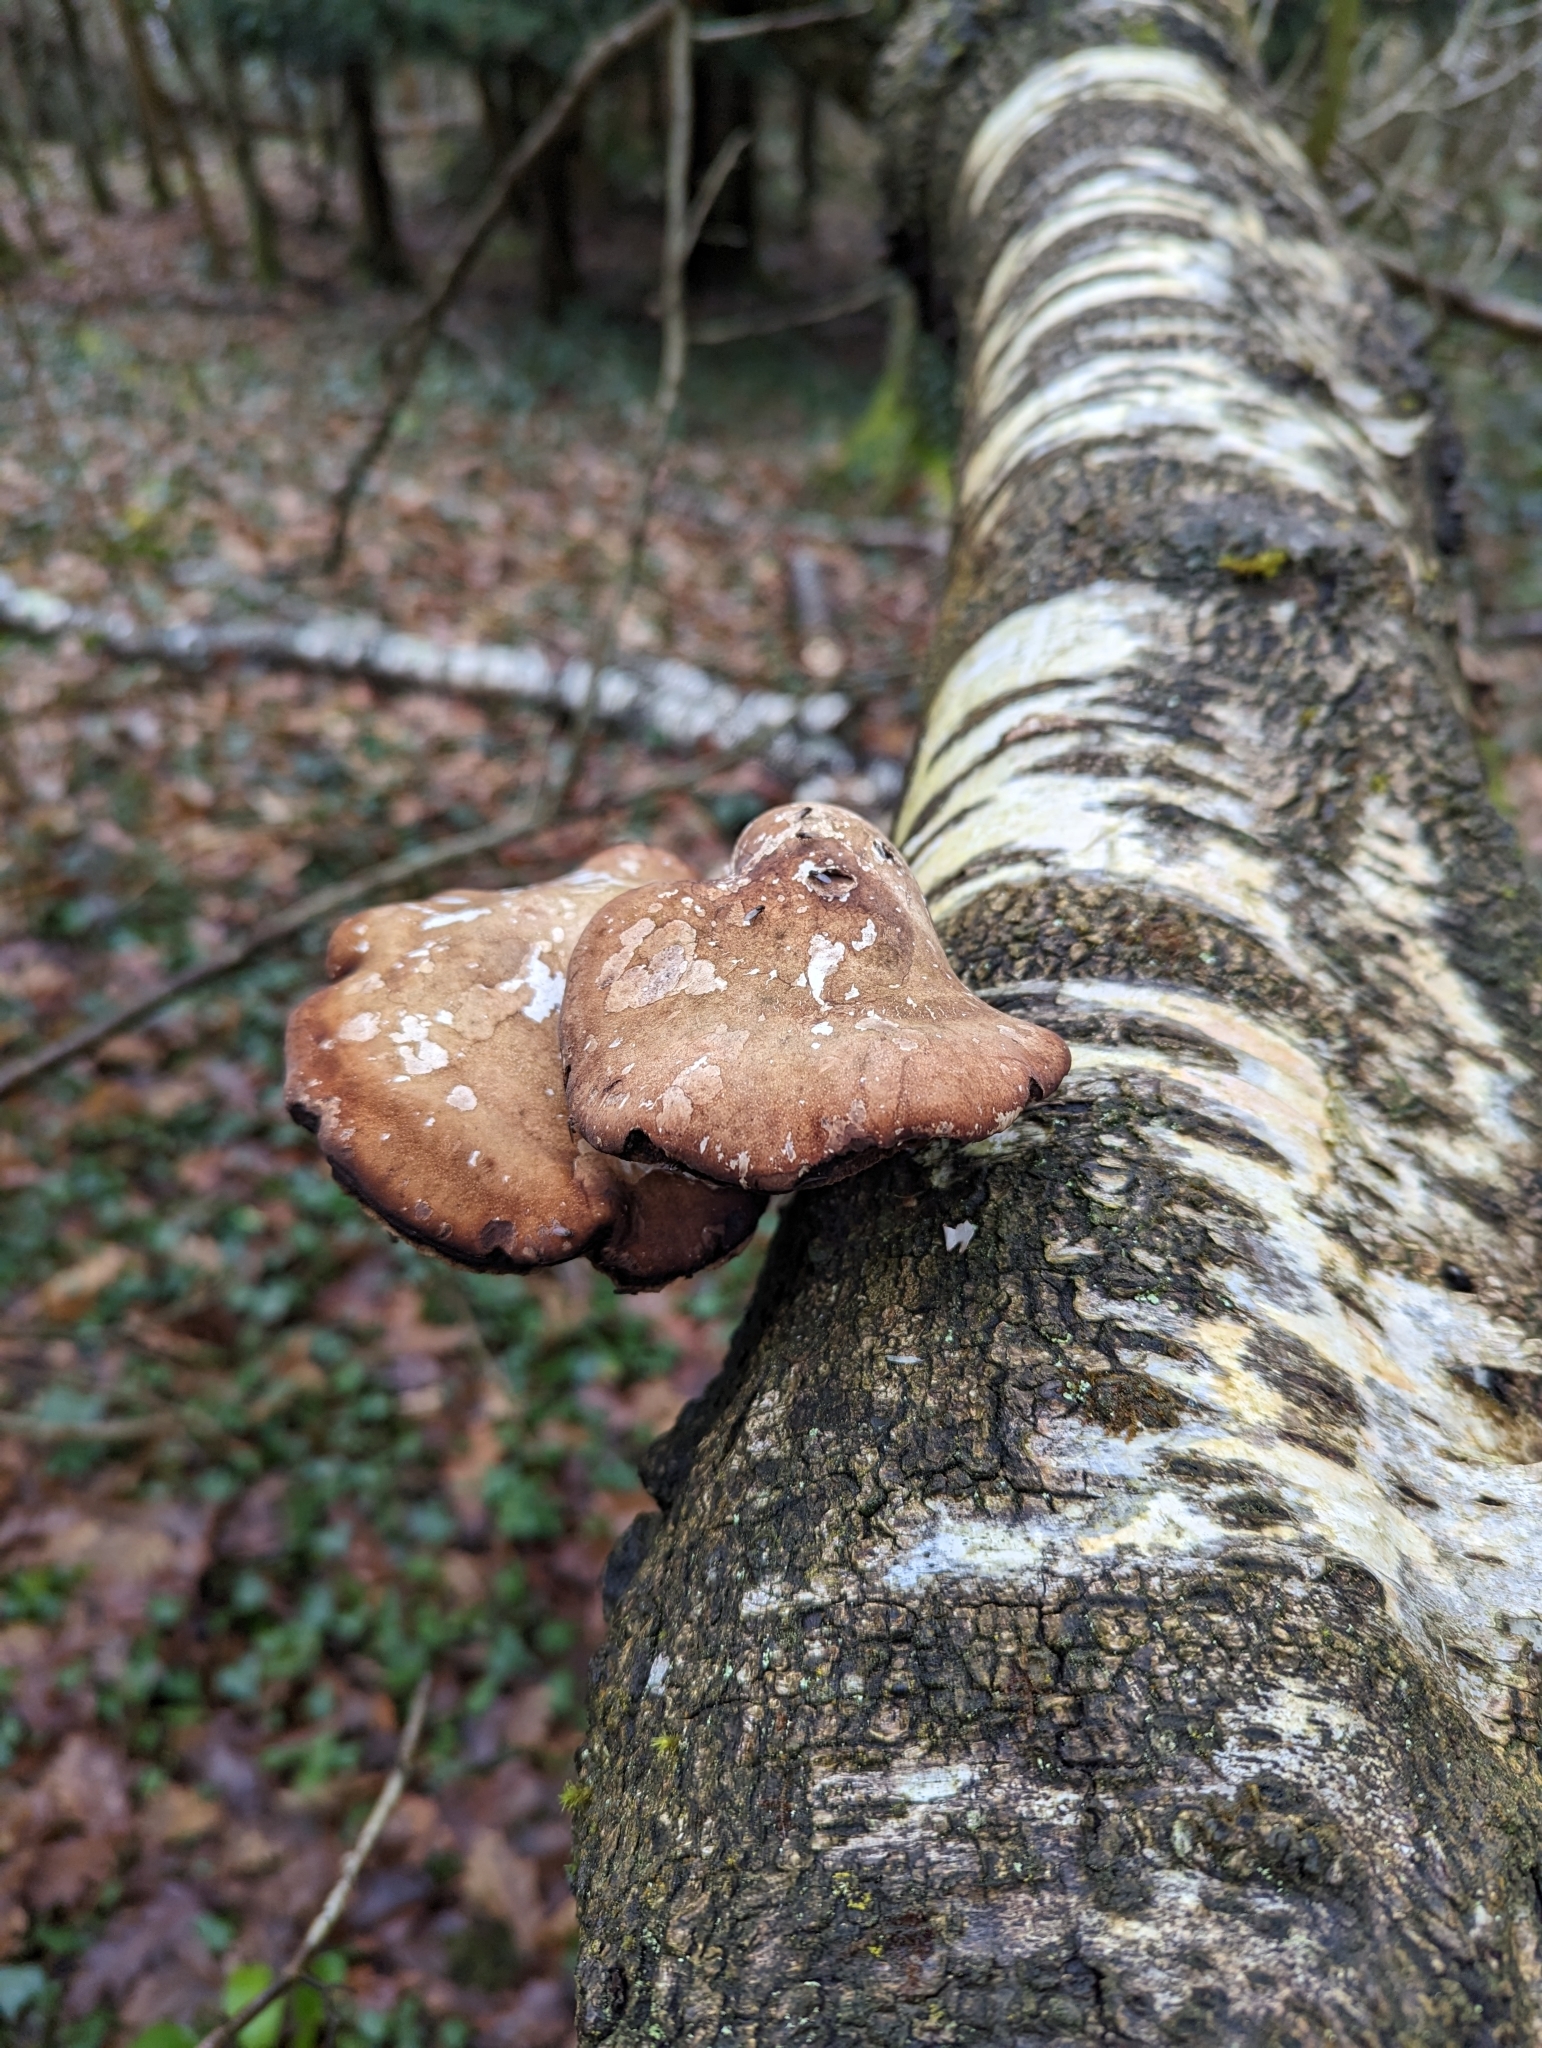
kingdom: Fungi
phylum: Basidiomycota
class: Agaricomycetes
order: Polyporales
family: Fomitopsidaceae
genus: Fomitopsis
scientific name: Fomitopsis betulina
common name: Birch polypore
